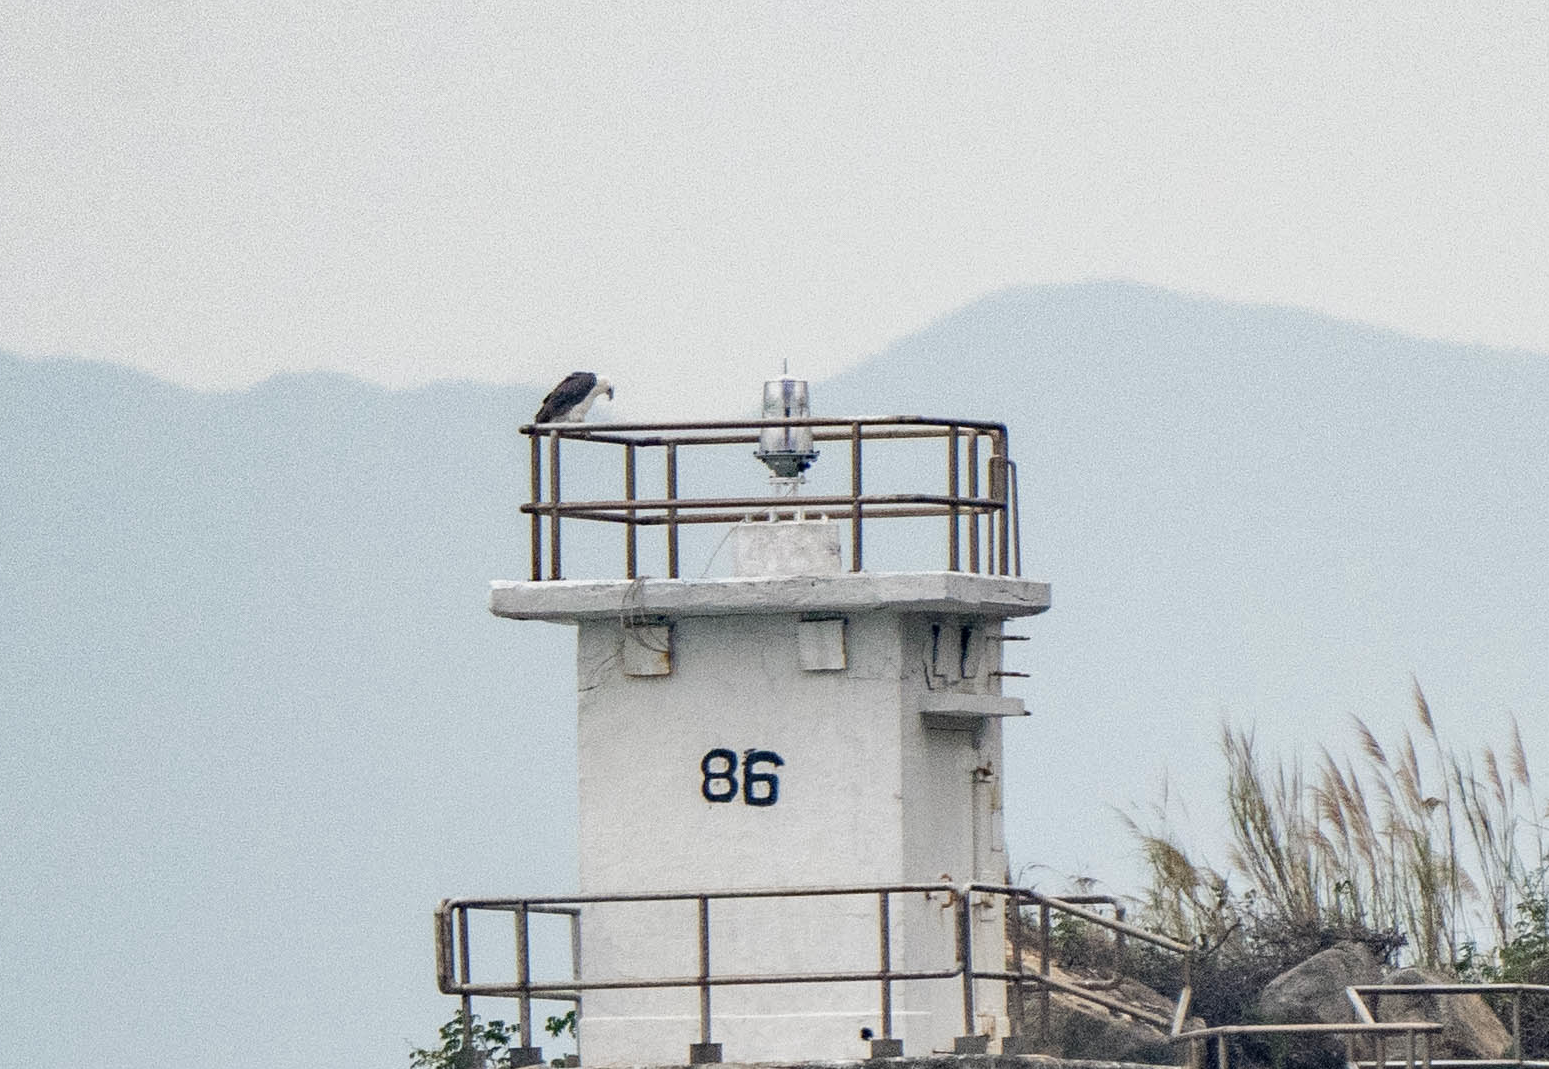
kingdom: Animalia
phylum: Chordata
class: Aves
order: Accipitriformes
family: Accipitridae
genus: Haliaeetus
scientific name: Haliaeetus leucogaster
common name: White-bellied sea eagle
